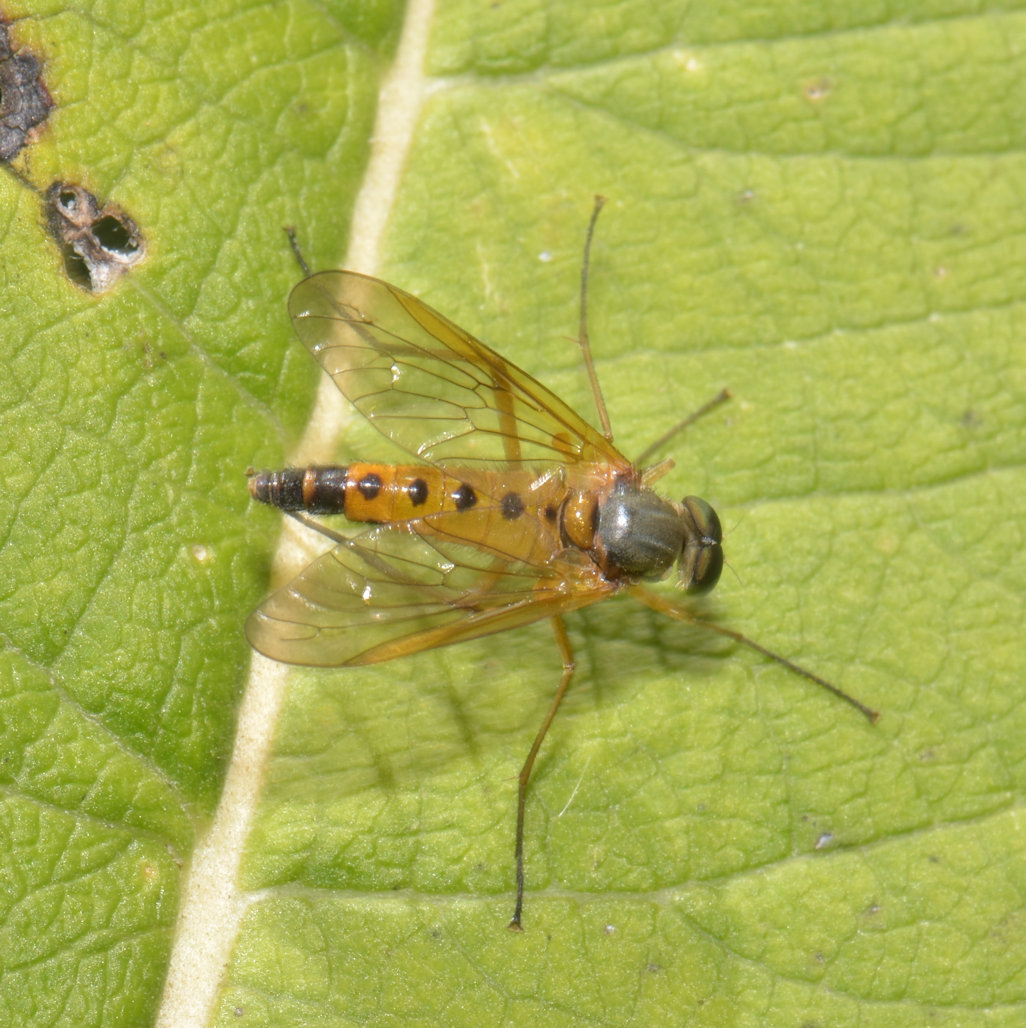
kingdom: Animalia
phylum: Arthropoda
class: Insecta
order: Diptera
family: Rhagionidae
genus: Rhagio
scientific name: Rhagio tringaria
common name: Marsh snipefly
